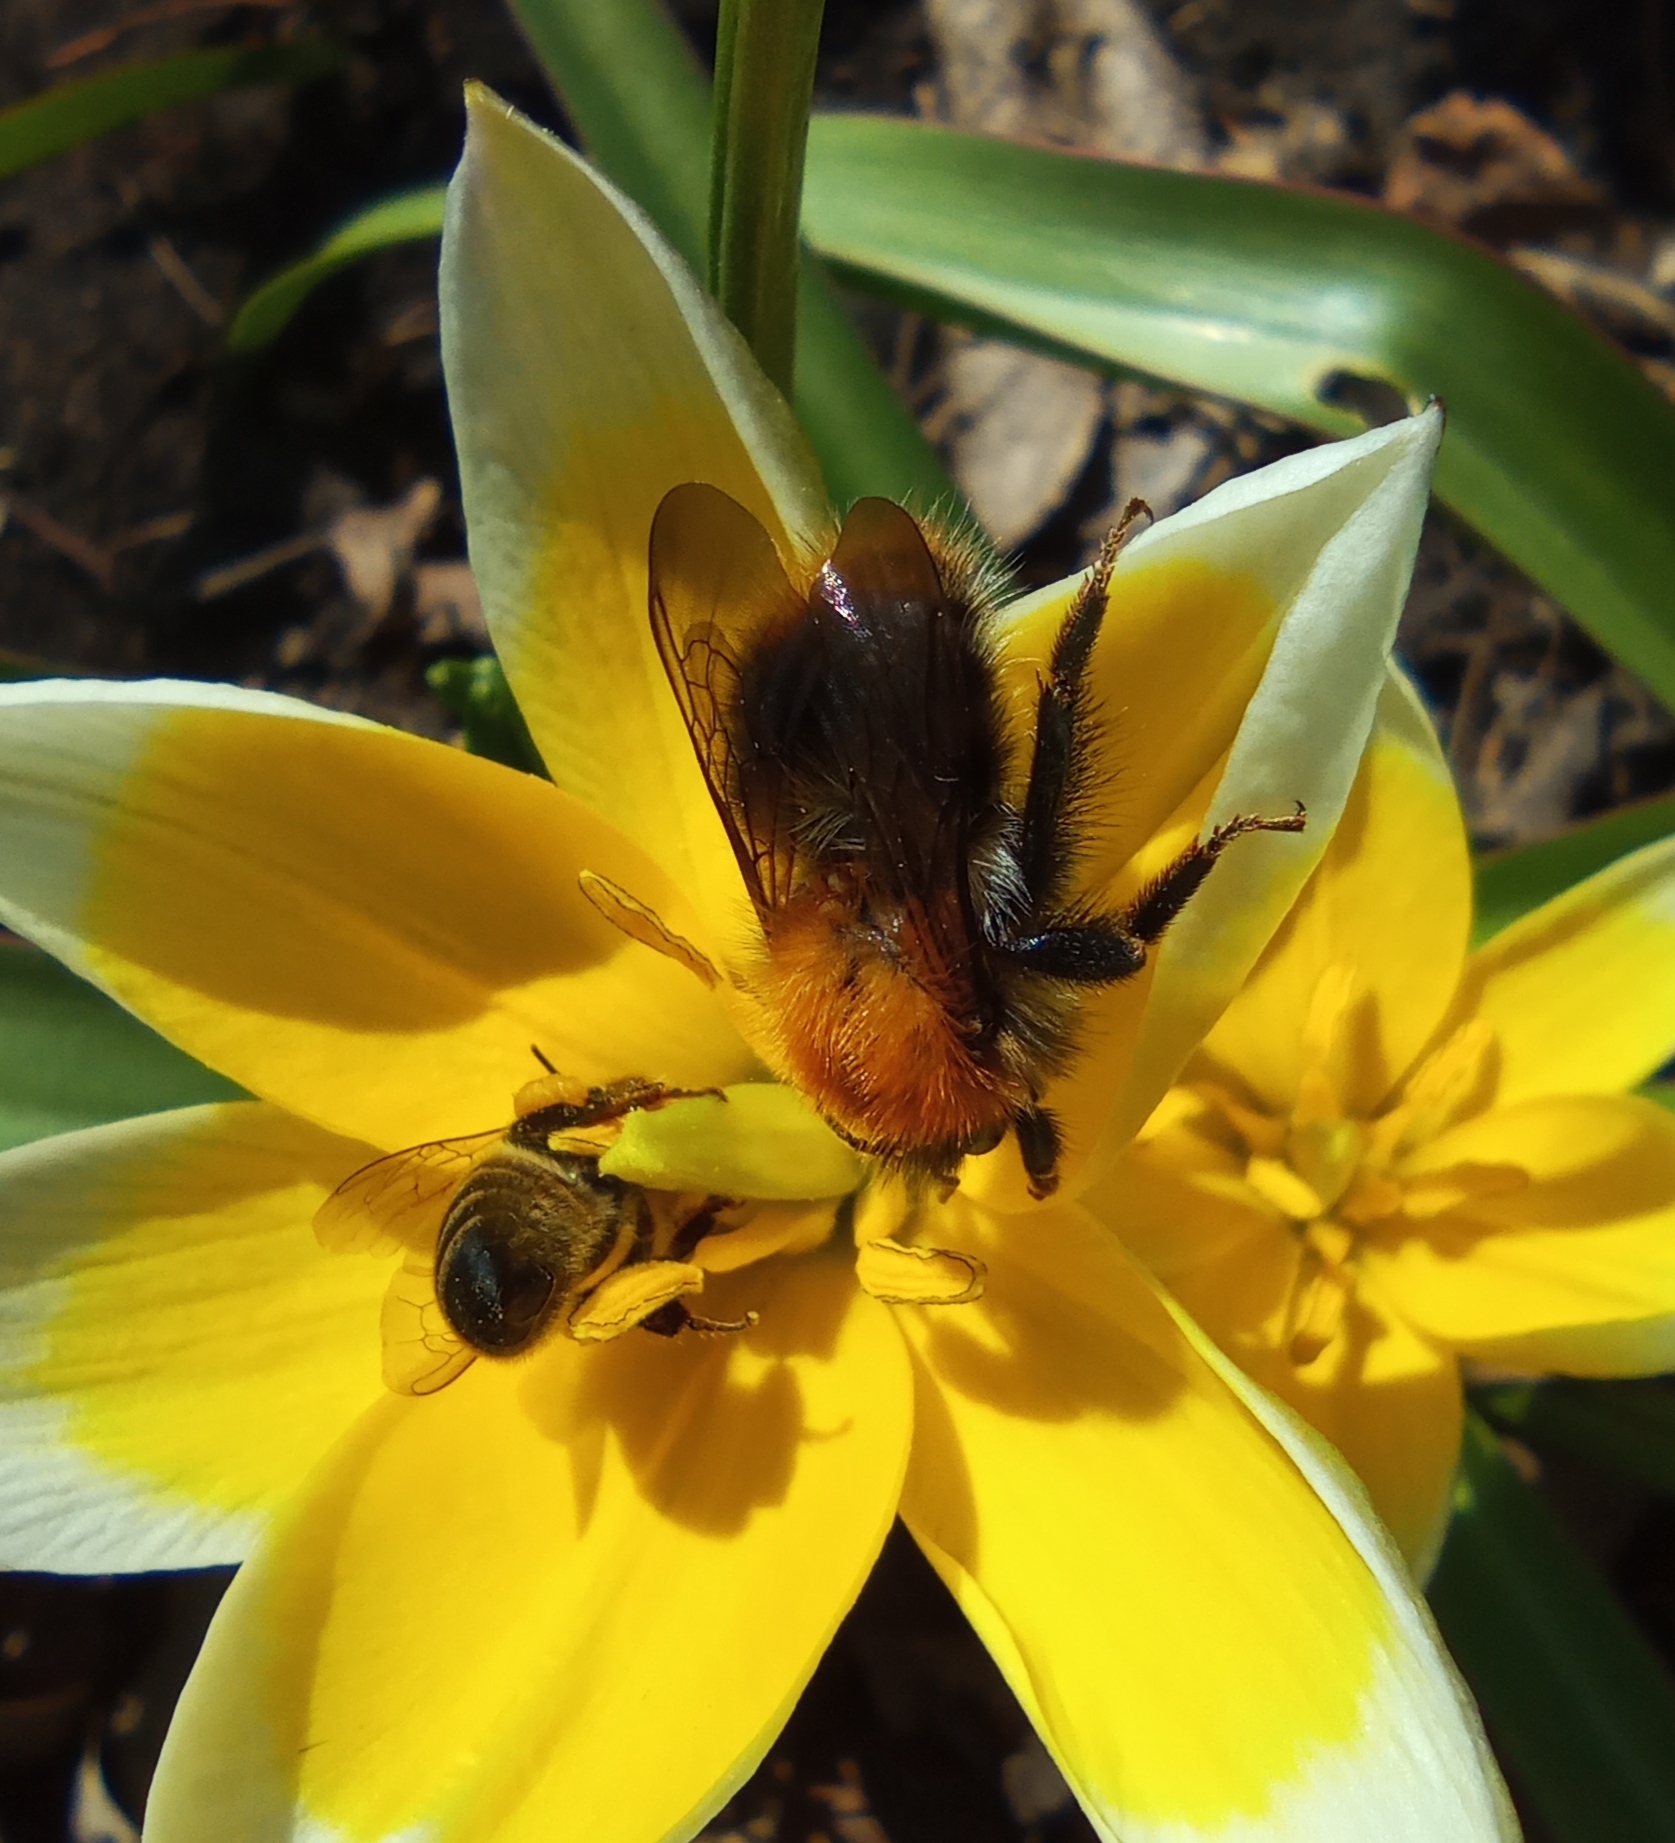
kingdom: Animalia
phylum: Arthropoda
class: Insecta
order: Hymenoptera
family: Apidae
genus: Bombus
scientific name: Bombus pascuorum
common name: Common carder bee
